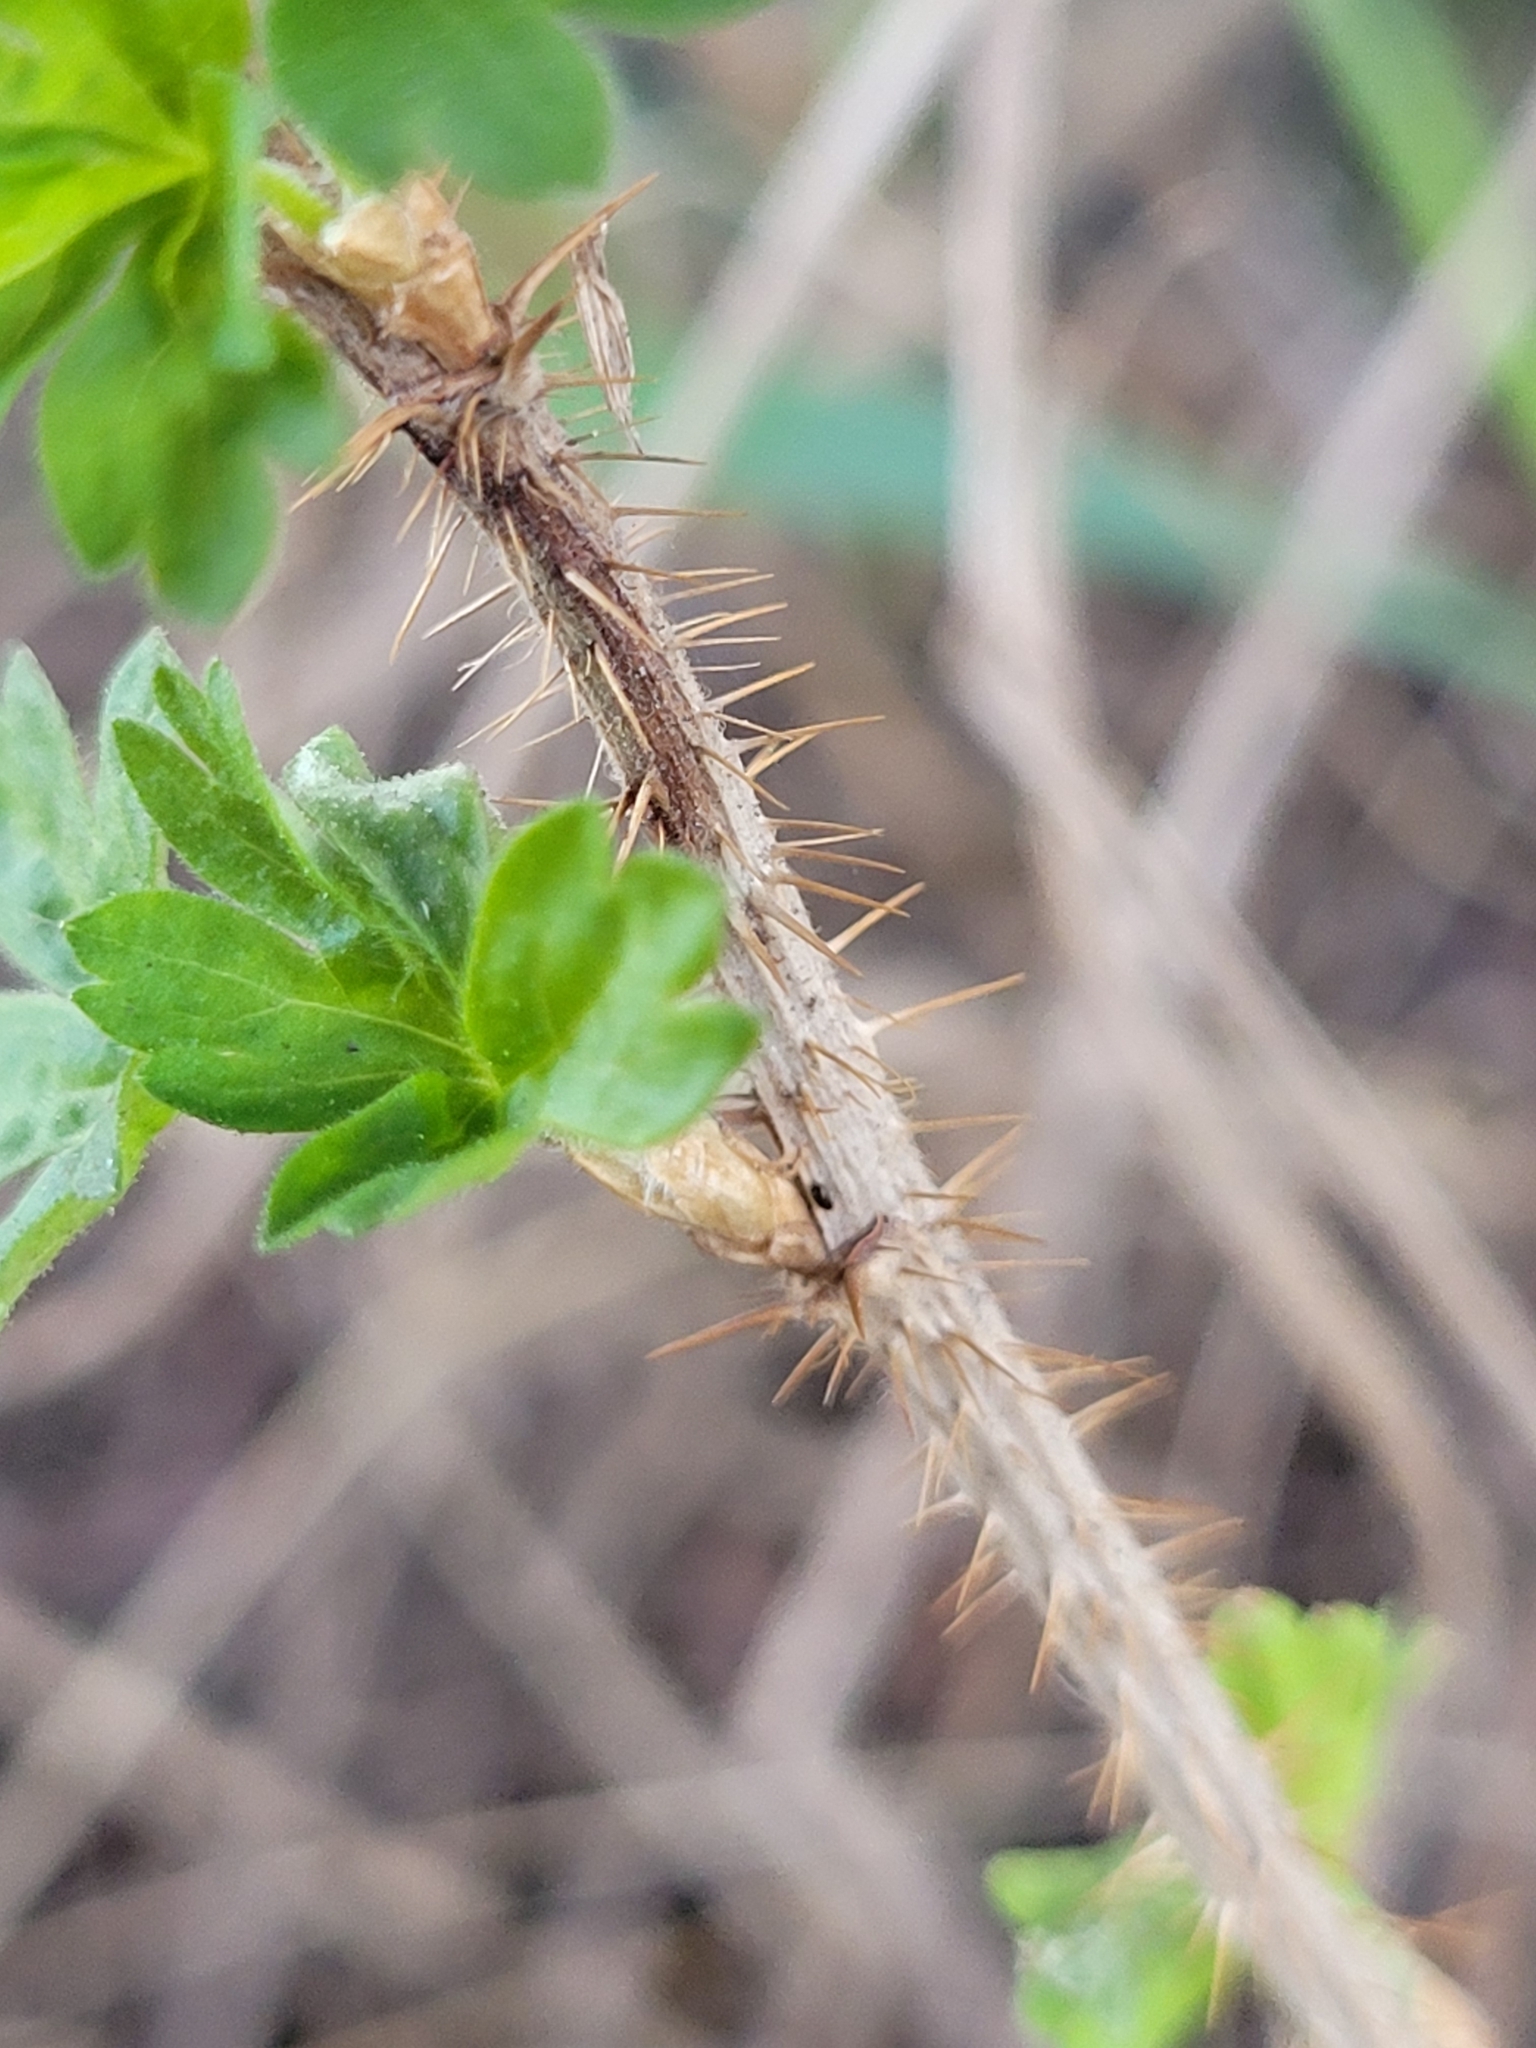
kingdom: Plantae
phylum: Tracheophyta
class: Magnoliopsida
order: Saxifragales
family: Grossulariaceae
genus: Ribes
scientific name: Ribes oxyacanthoides
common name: Northern gooseberry
